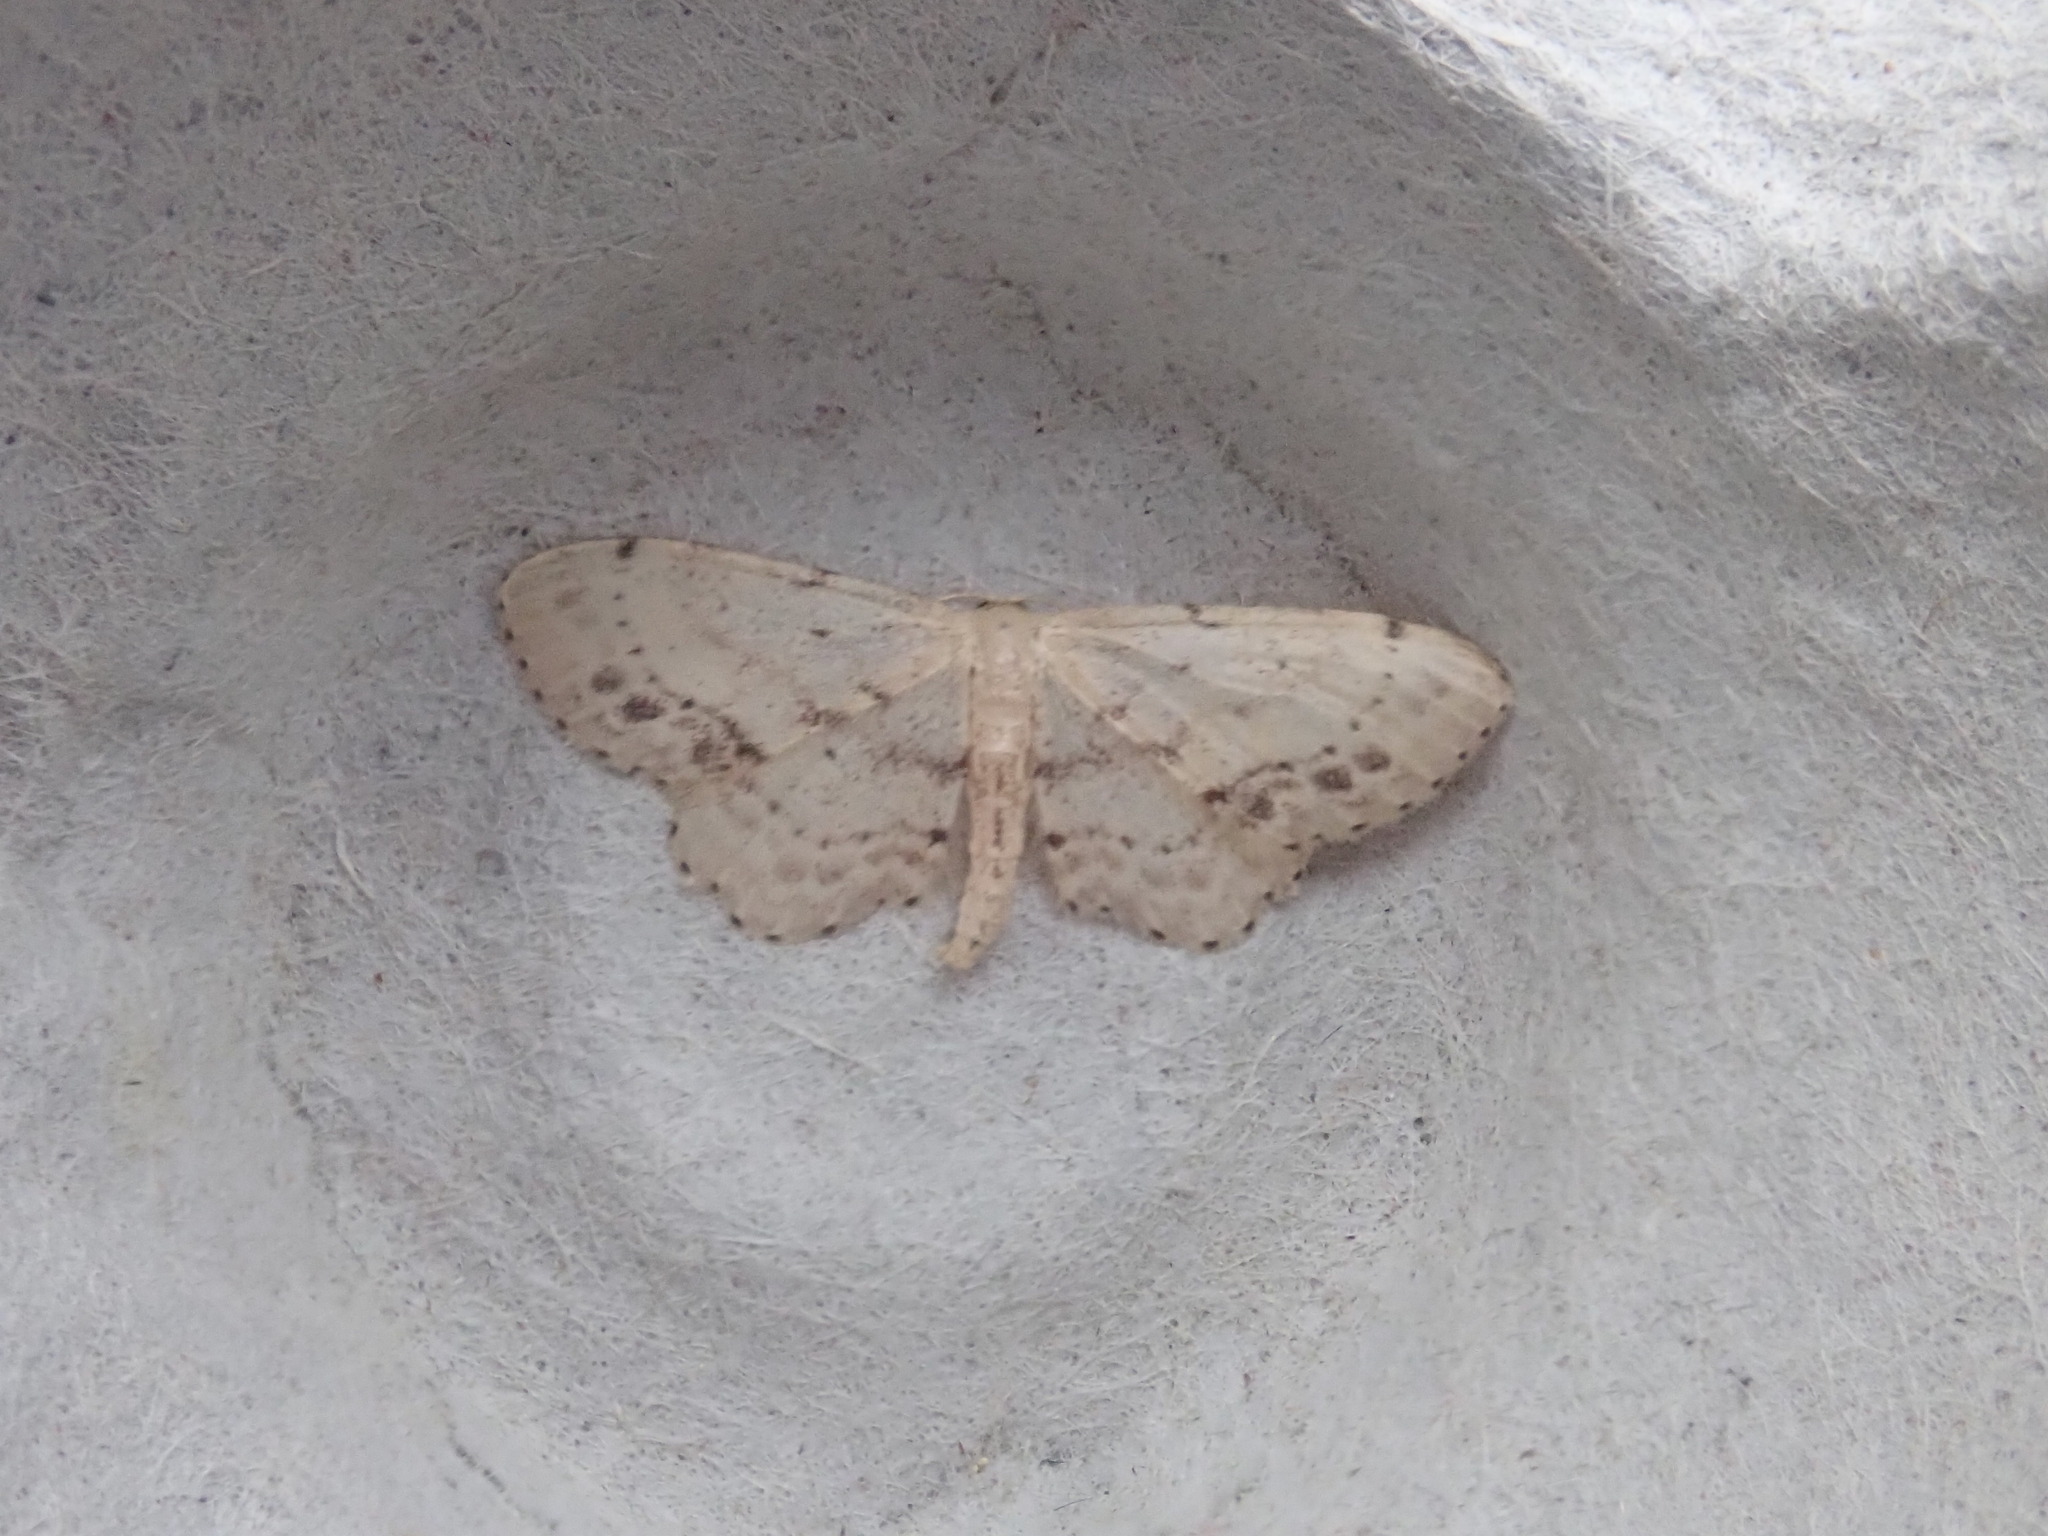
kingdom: Animalia
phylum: Arthropoda
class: Insecta
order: Lepidoptera
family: Geometridae
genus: Idaea
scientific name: Idaea dimidiata
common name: Single-dotted wave
